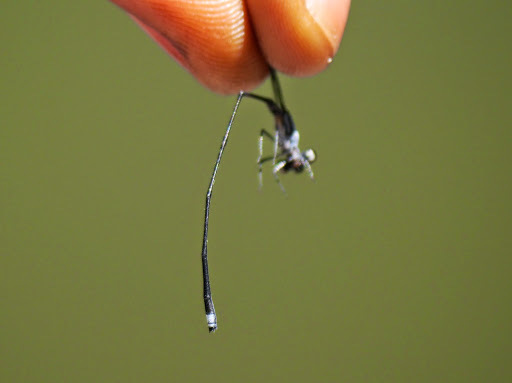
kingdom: Animalia
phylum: Arthropoda
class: Insecta
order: Odonata
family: Platycnemididae
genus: Elattoneura
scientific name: Elattoneura lliba
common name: Eastern stream threadtail
